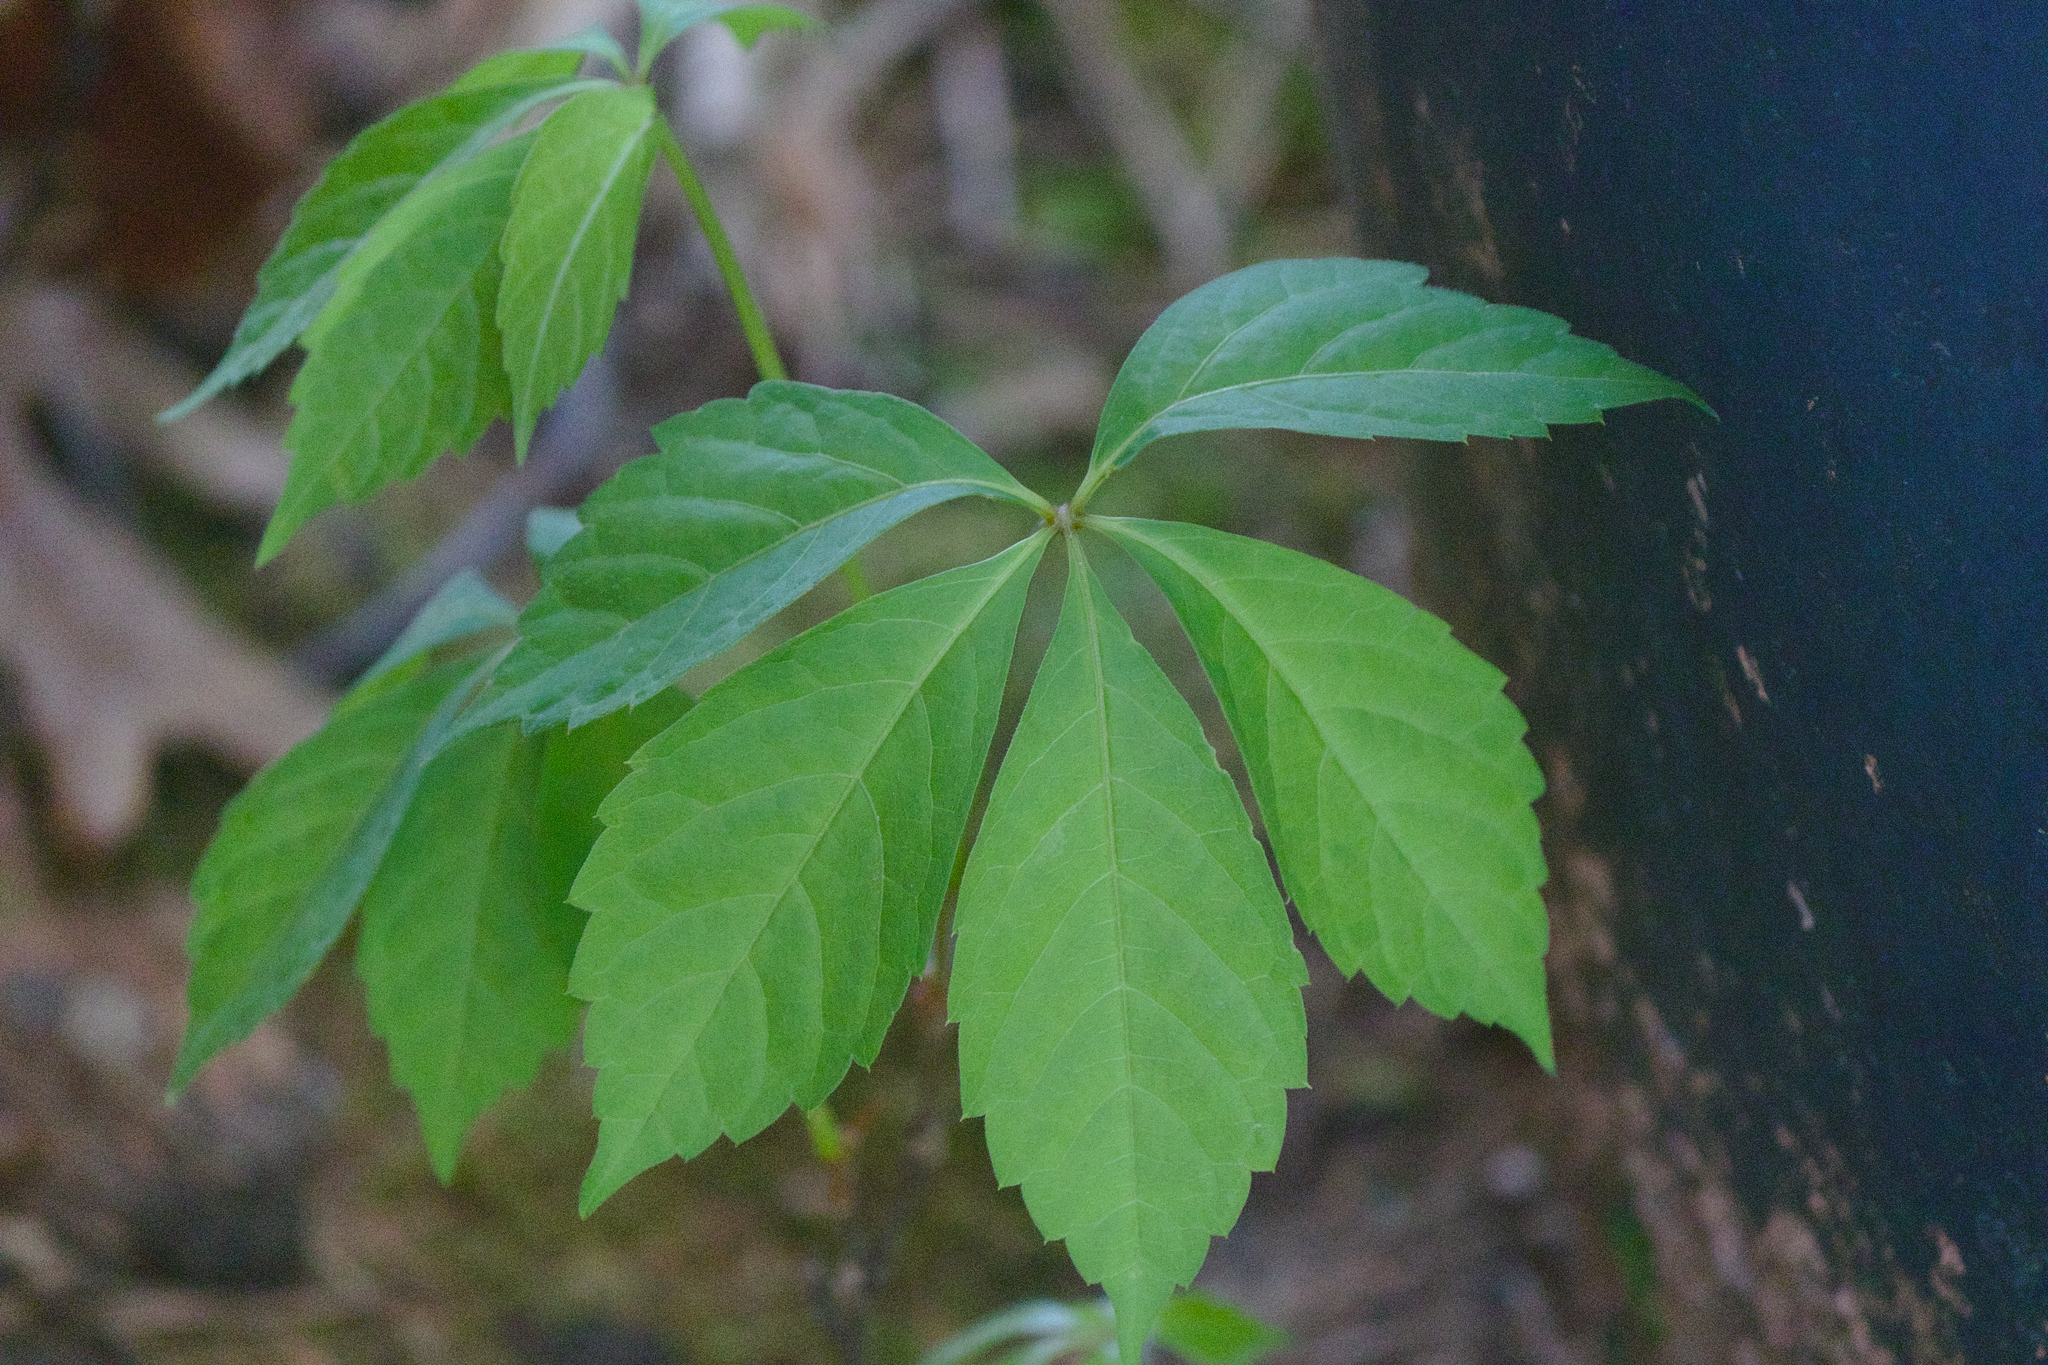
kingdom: Plantae
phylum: Tracheophyta
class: Magnoliopsida
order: Vitales
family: Vitaceae
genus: Parthenocissus
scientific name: Parthenocissus quinquefolia
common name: Virginia-creeper
